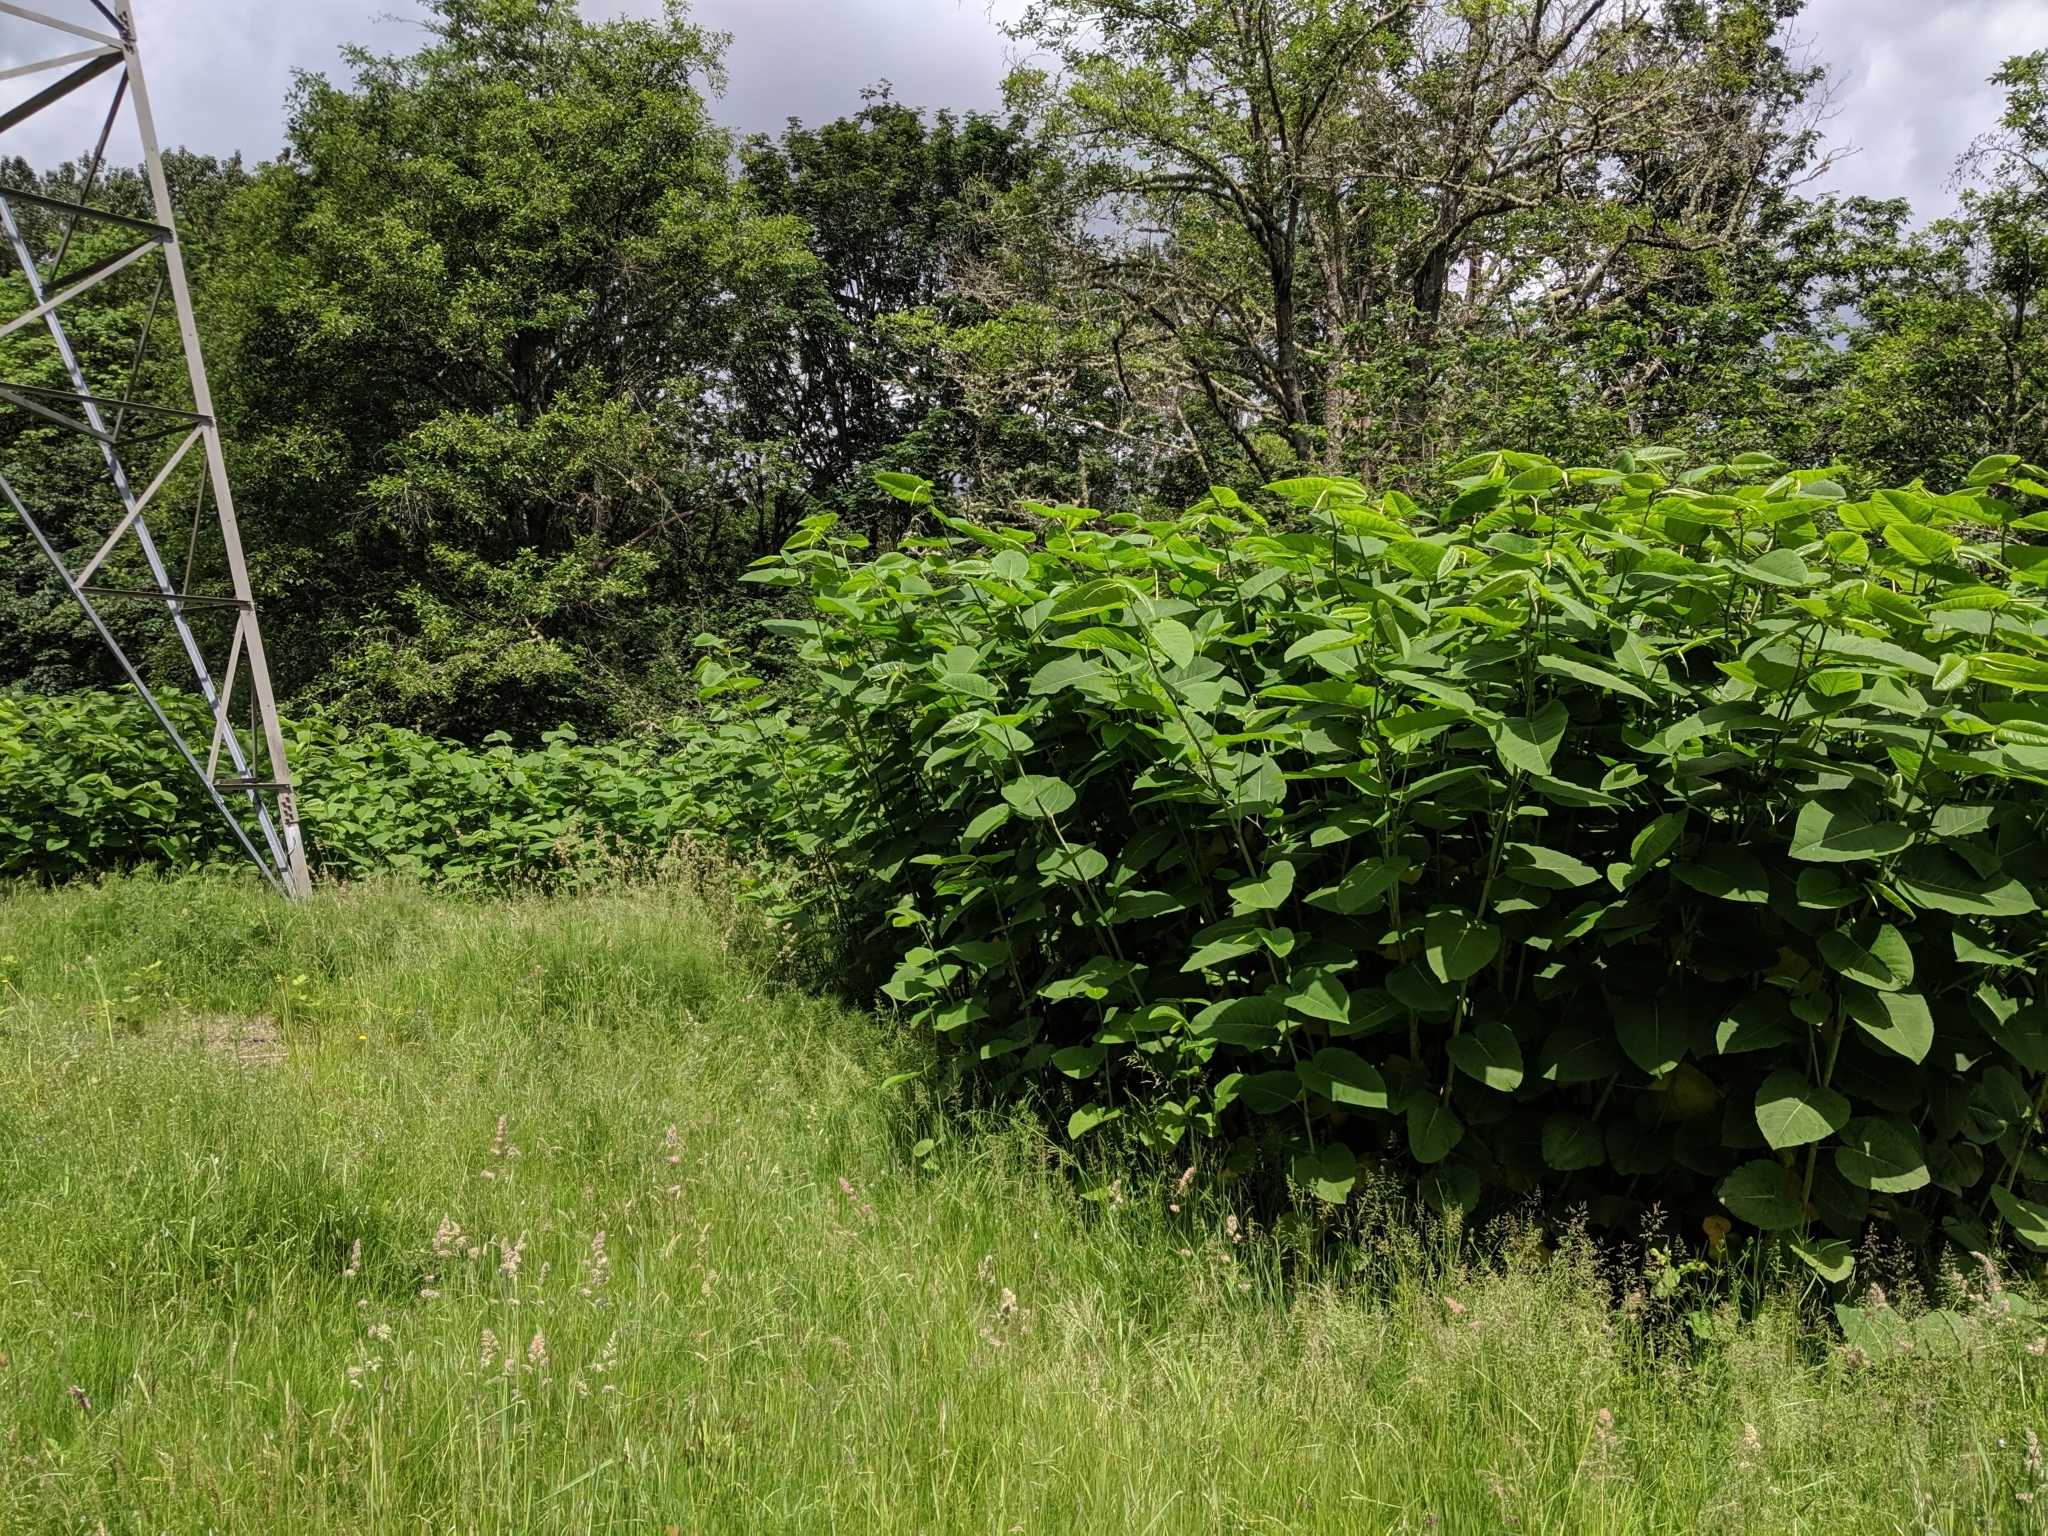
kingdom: Plantae
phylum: Tracheophyta
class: Magnoliopsida
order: Caryophyllales
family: Polygonaceae
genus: Reynoutria
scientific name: Reynoutria sachalinensis
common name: Giant knotweed
